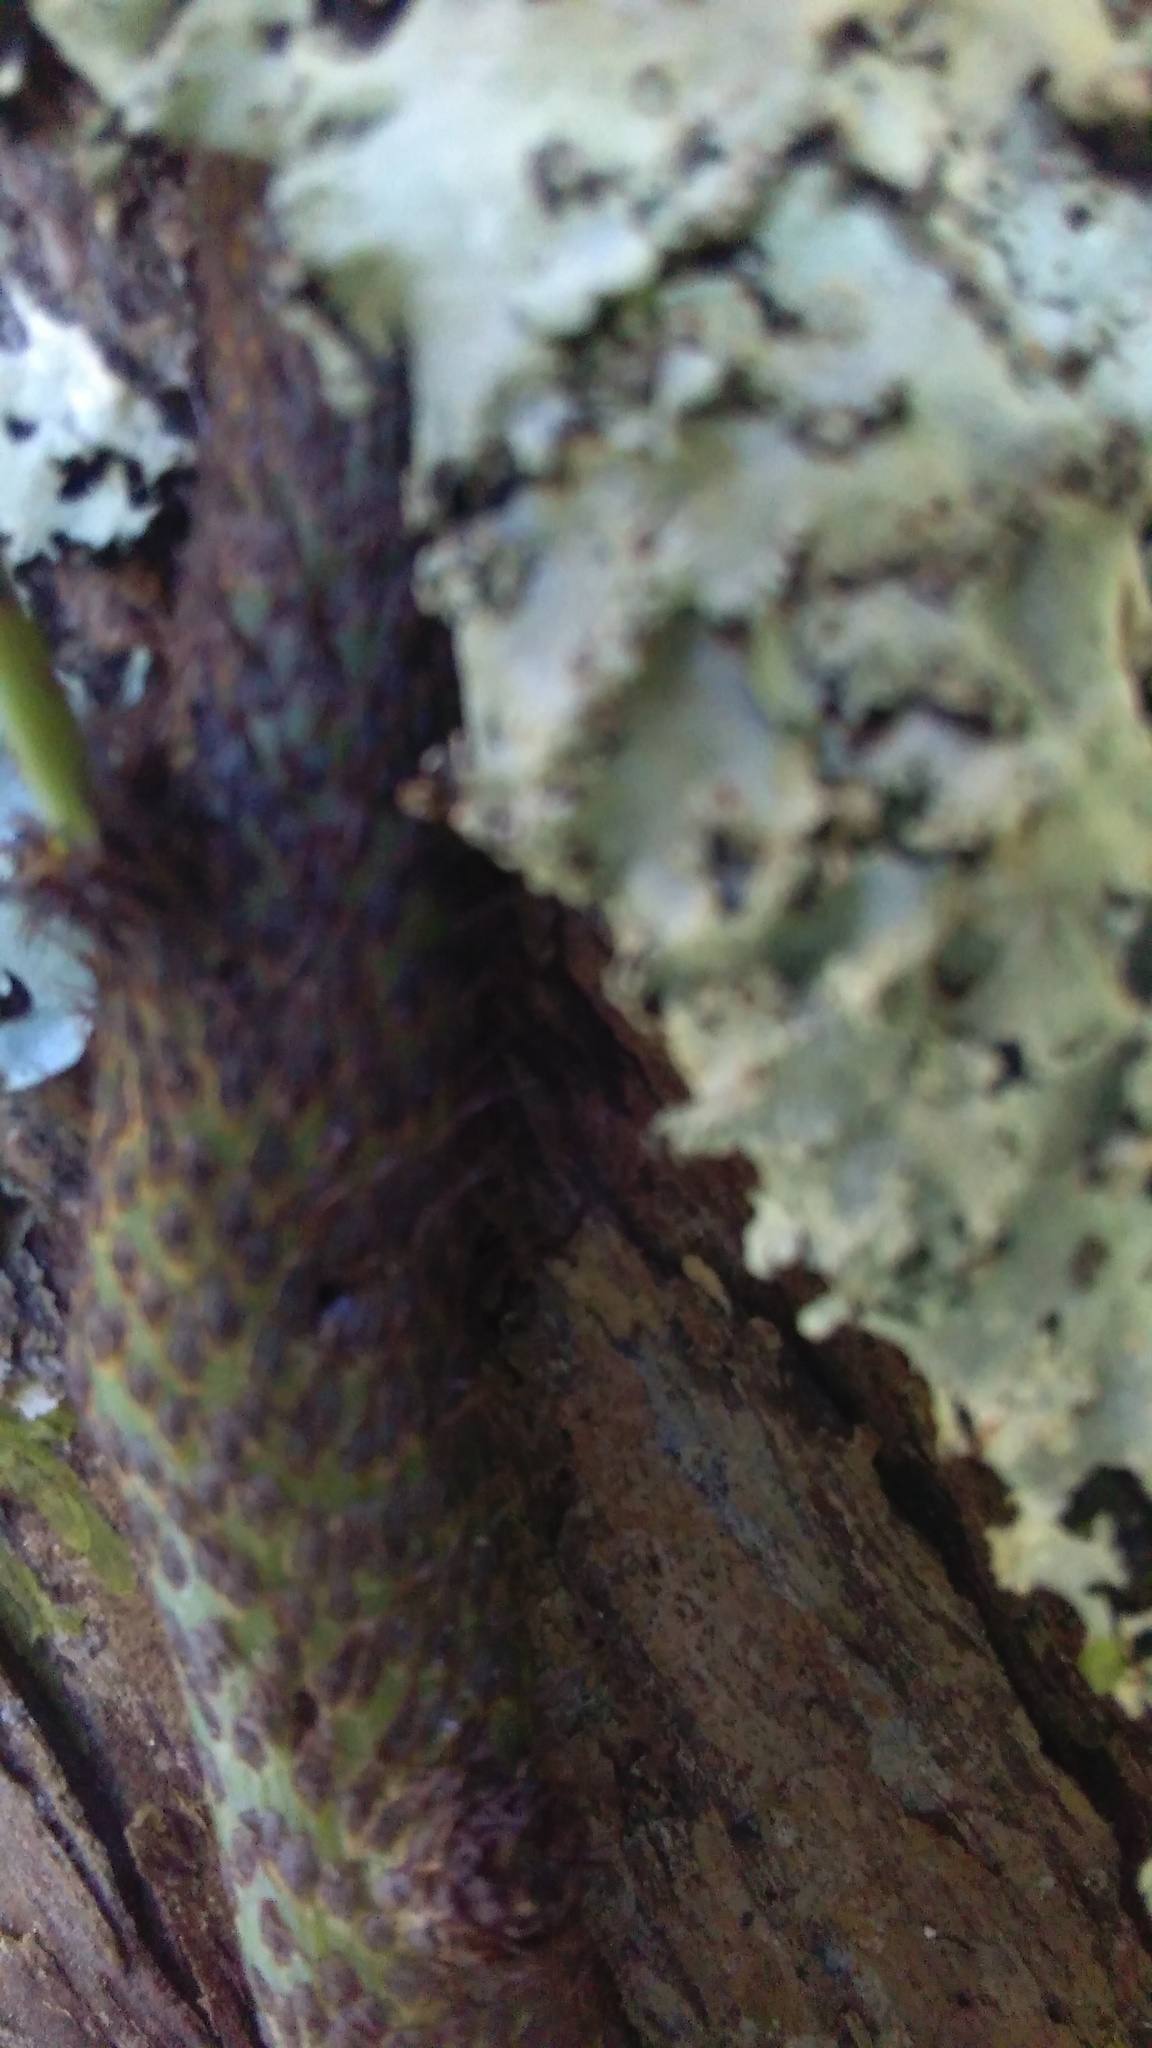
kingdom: Plantae
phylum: Tracheophyta
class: Polypodiopsida
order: Polypodiales
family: Polypodiaceae
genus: Lecanopteris
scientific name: Lecanopteris pustulata
